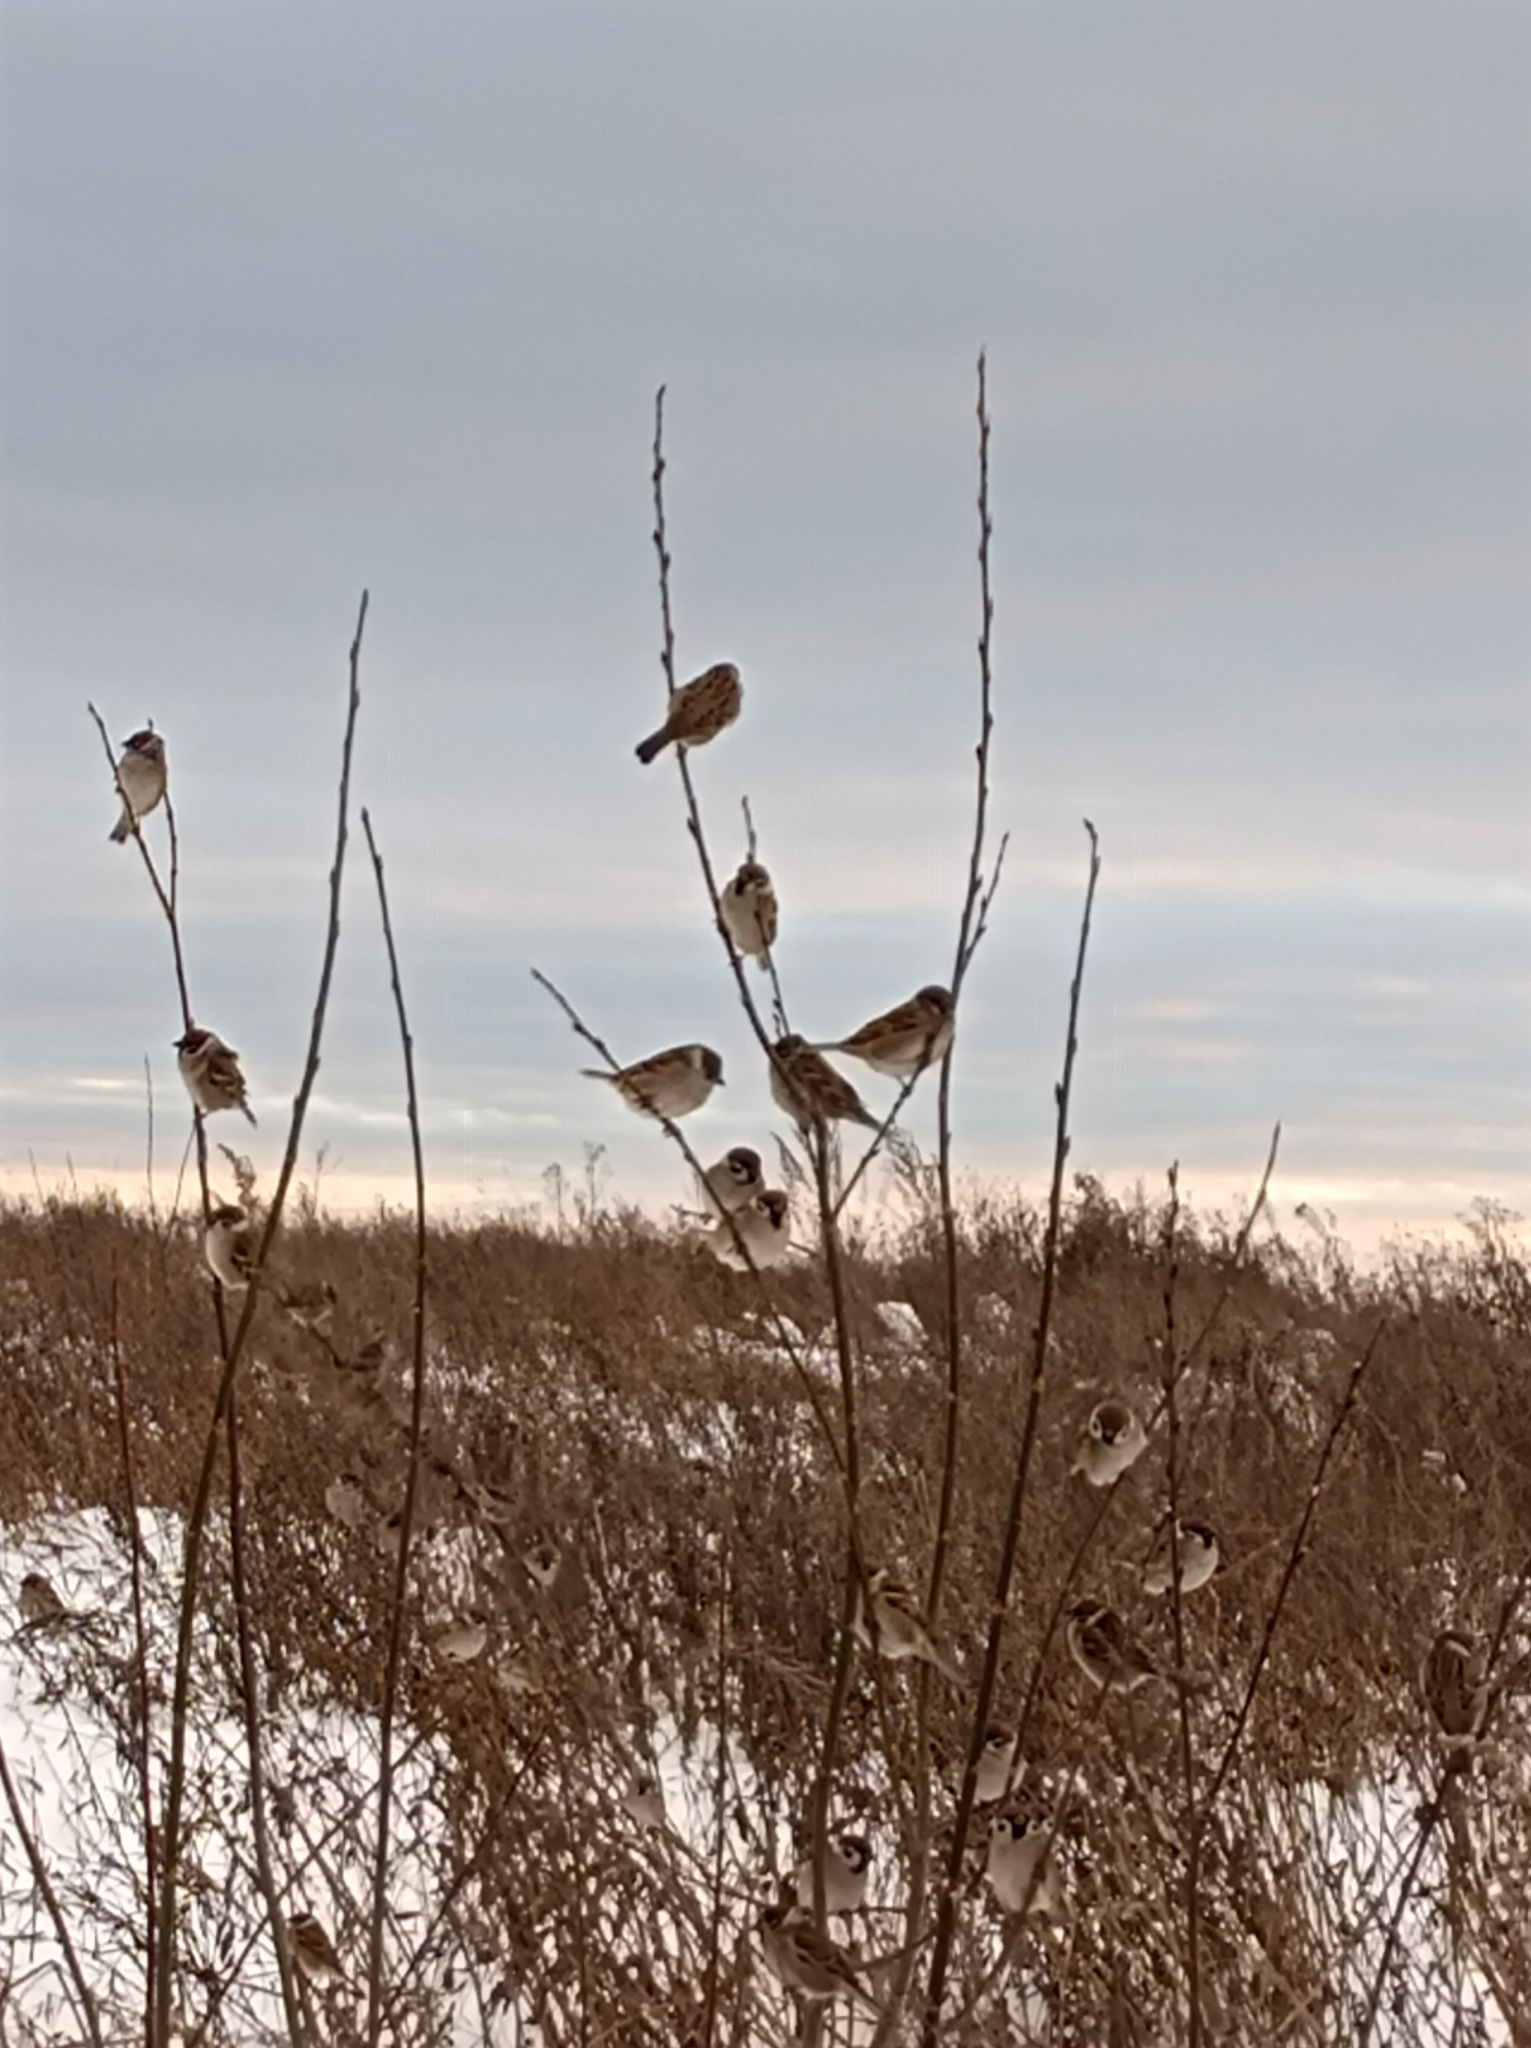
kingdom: Animalia
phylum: Chordata
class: Aves
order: Passeriformes
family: Passeridae
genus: Passer
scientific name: Passer montanus
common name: Eurasian tree sparrow
